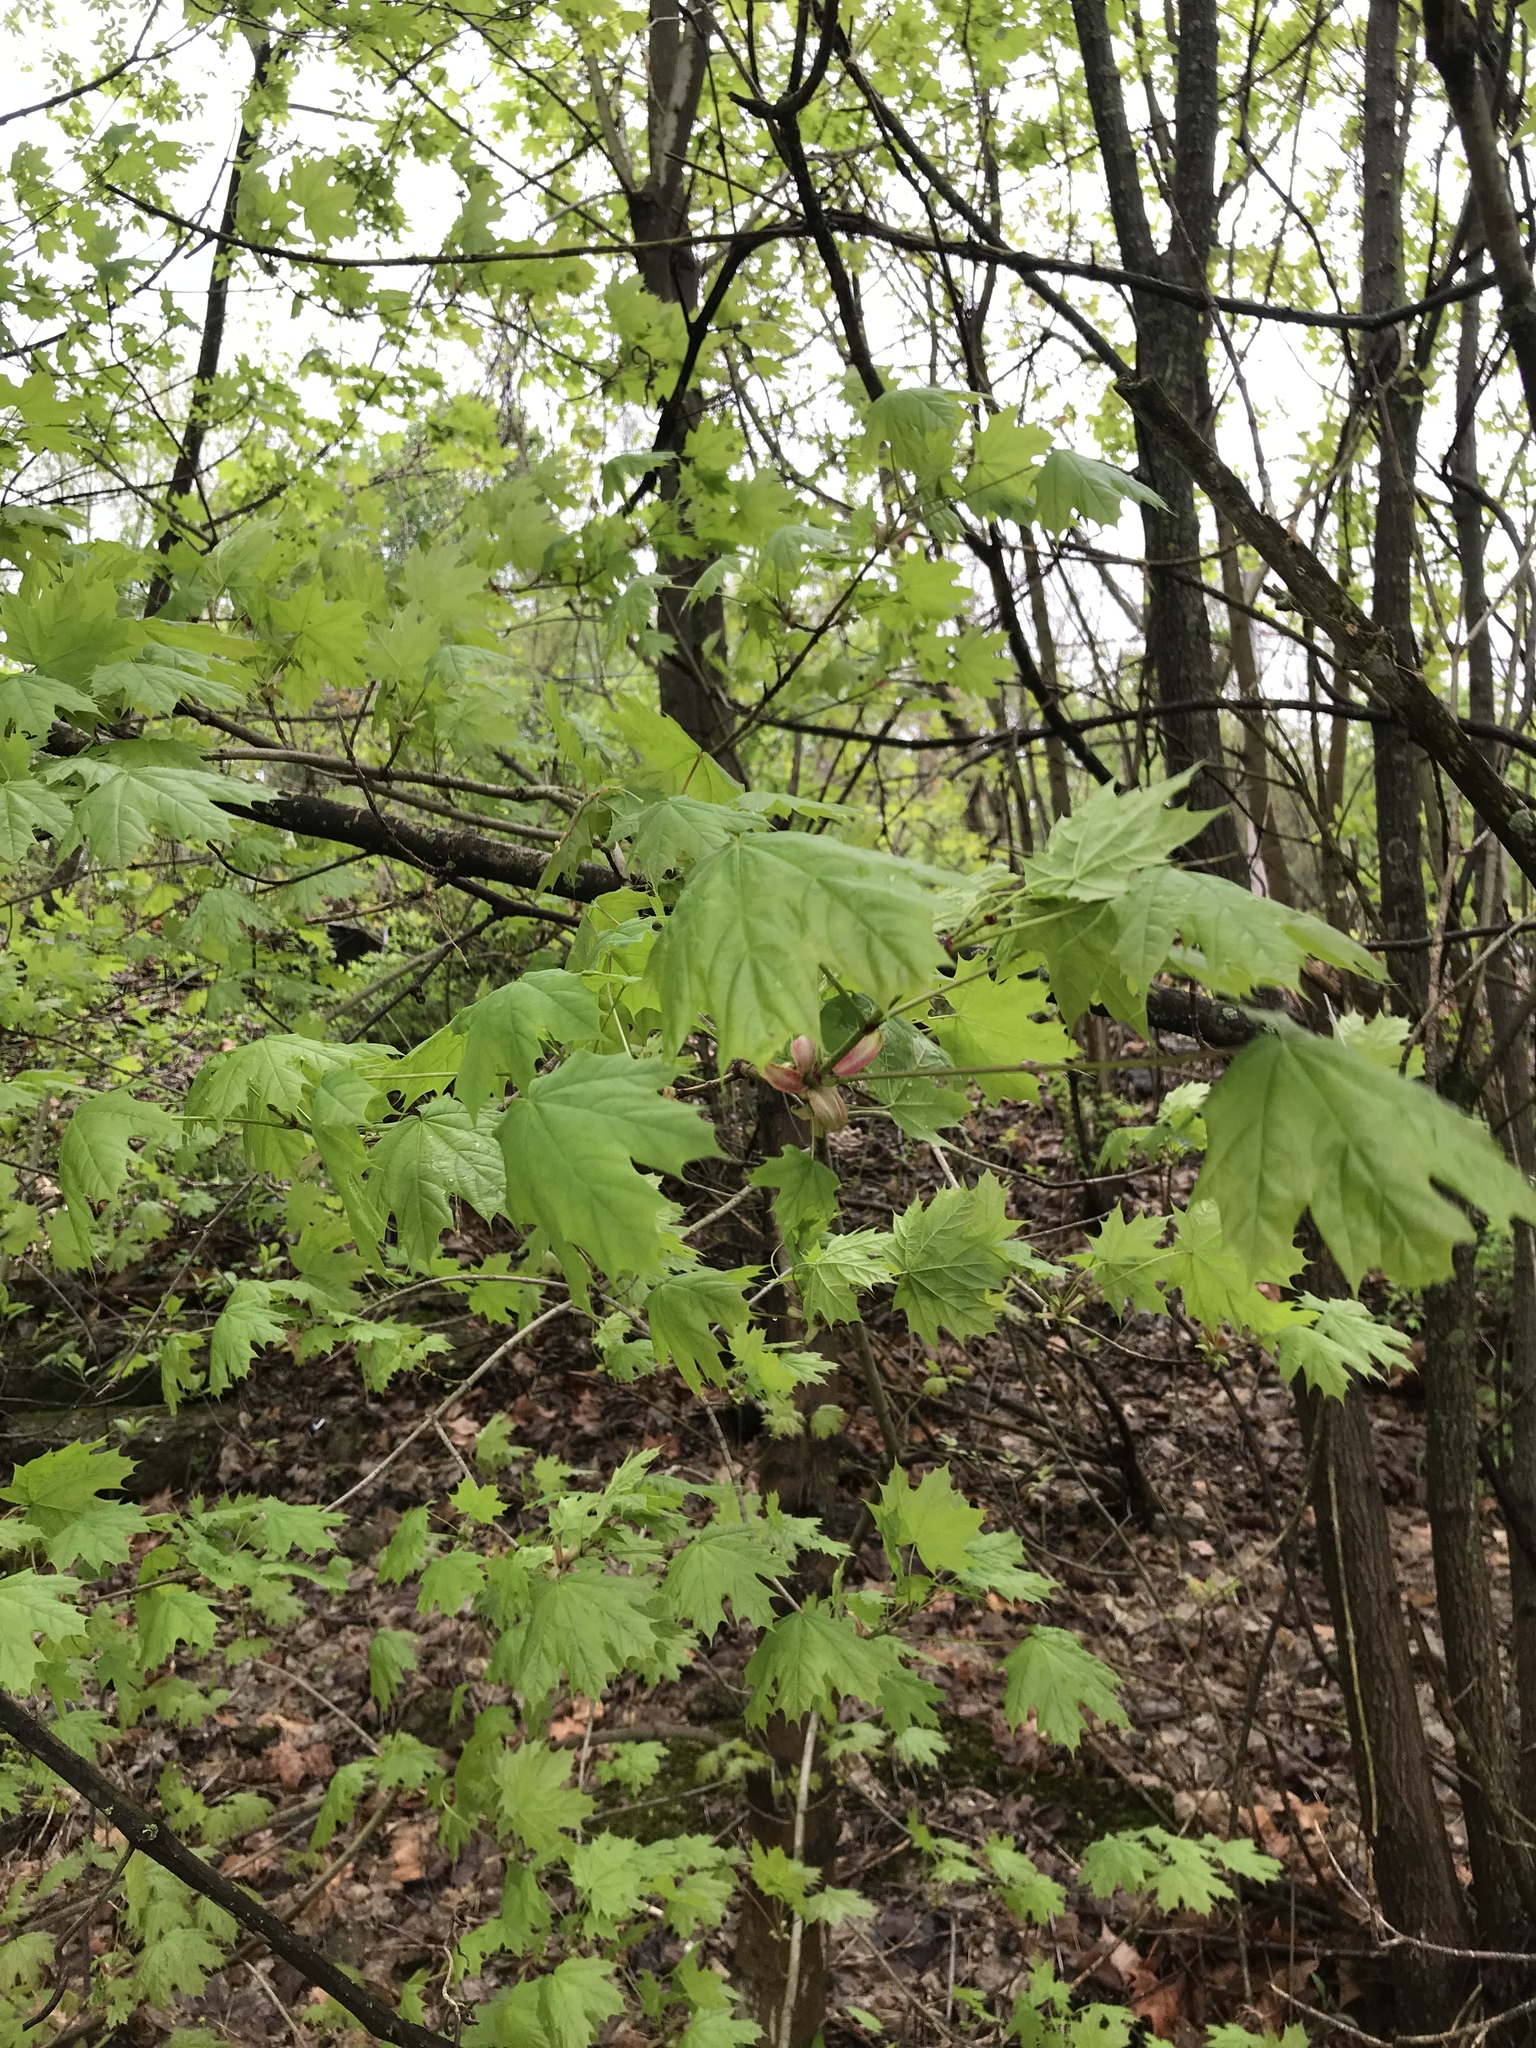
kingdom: Plantae
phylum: Tracheophyta
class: Magnoliopsida
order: Sapindales
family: Sapindaceae
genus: Acer
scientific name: Acer platanoides
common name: Norway maple
